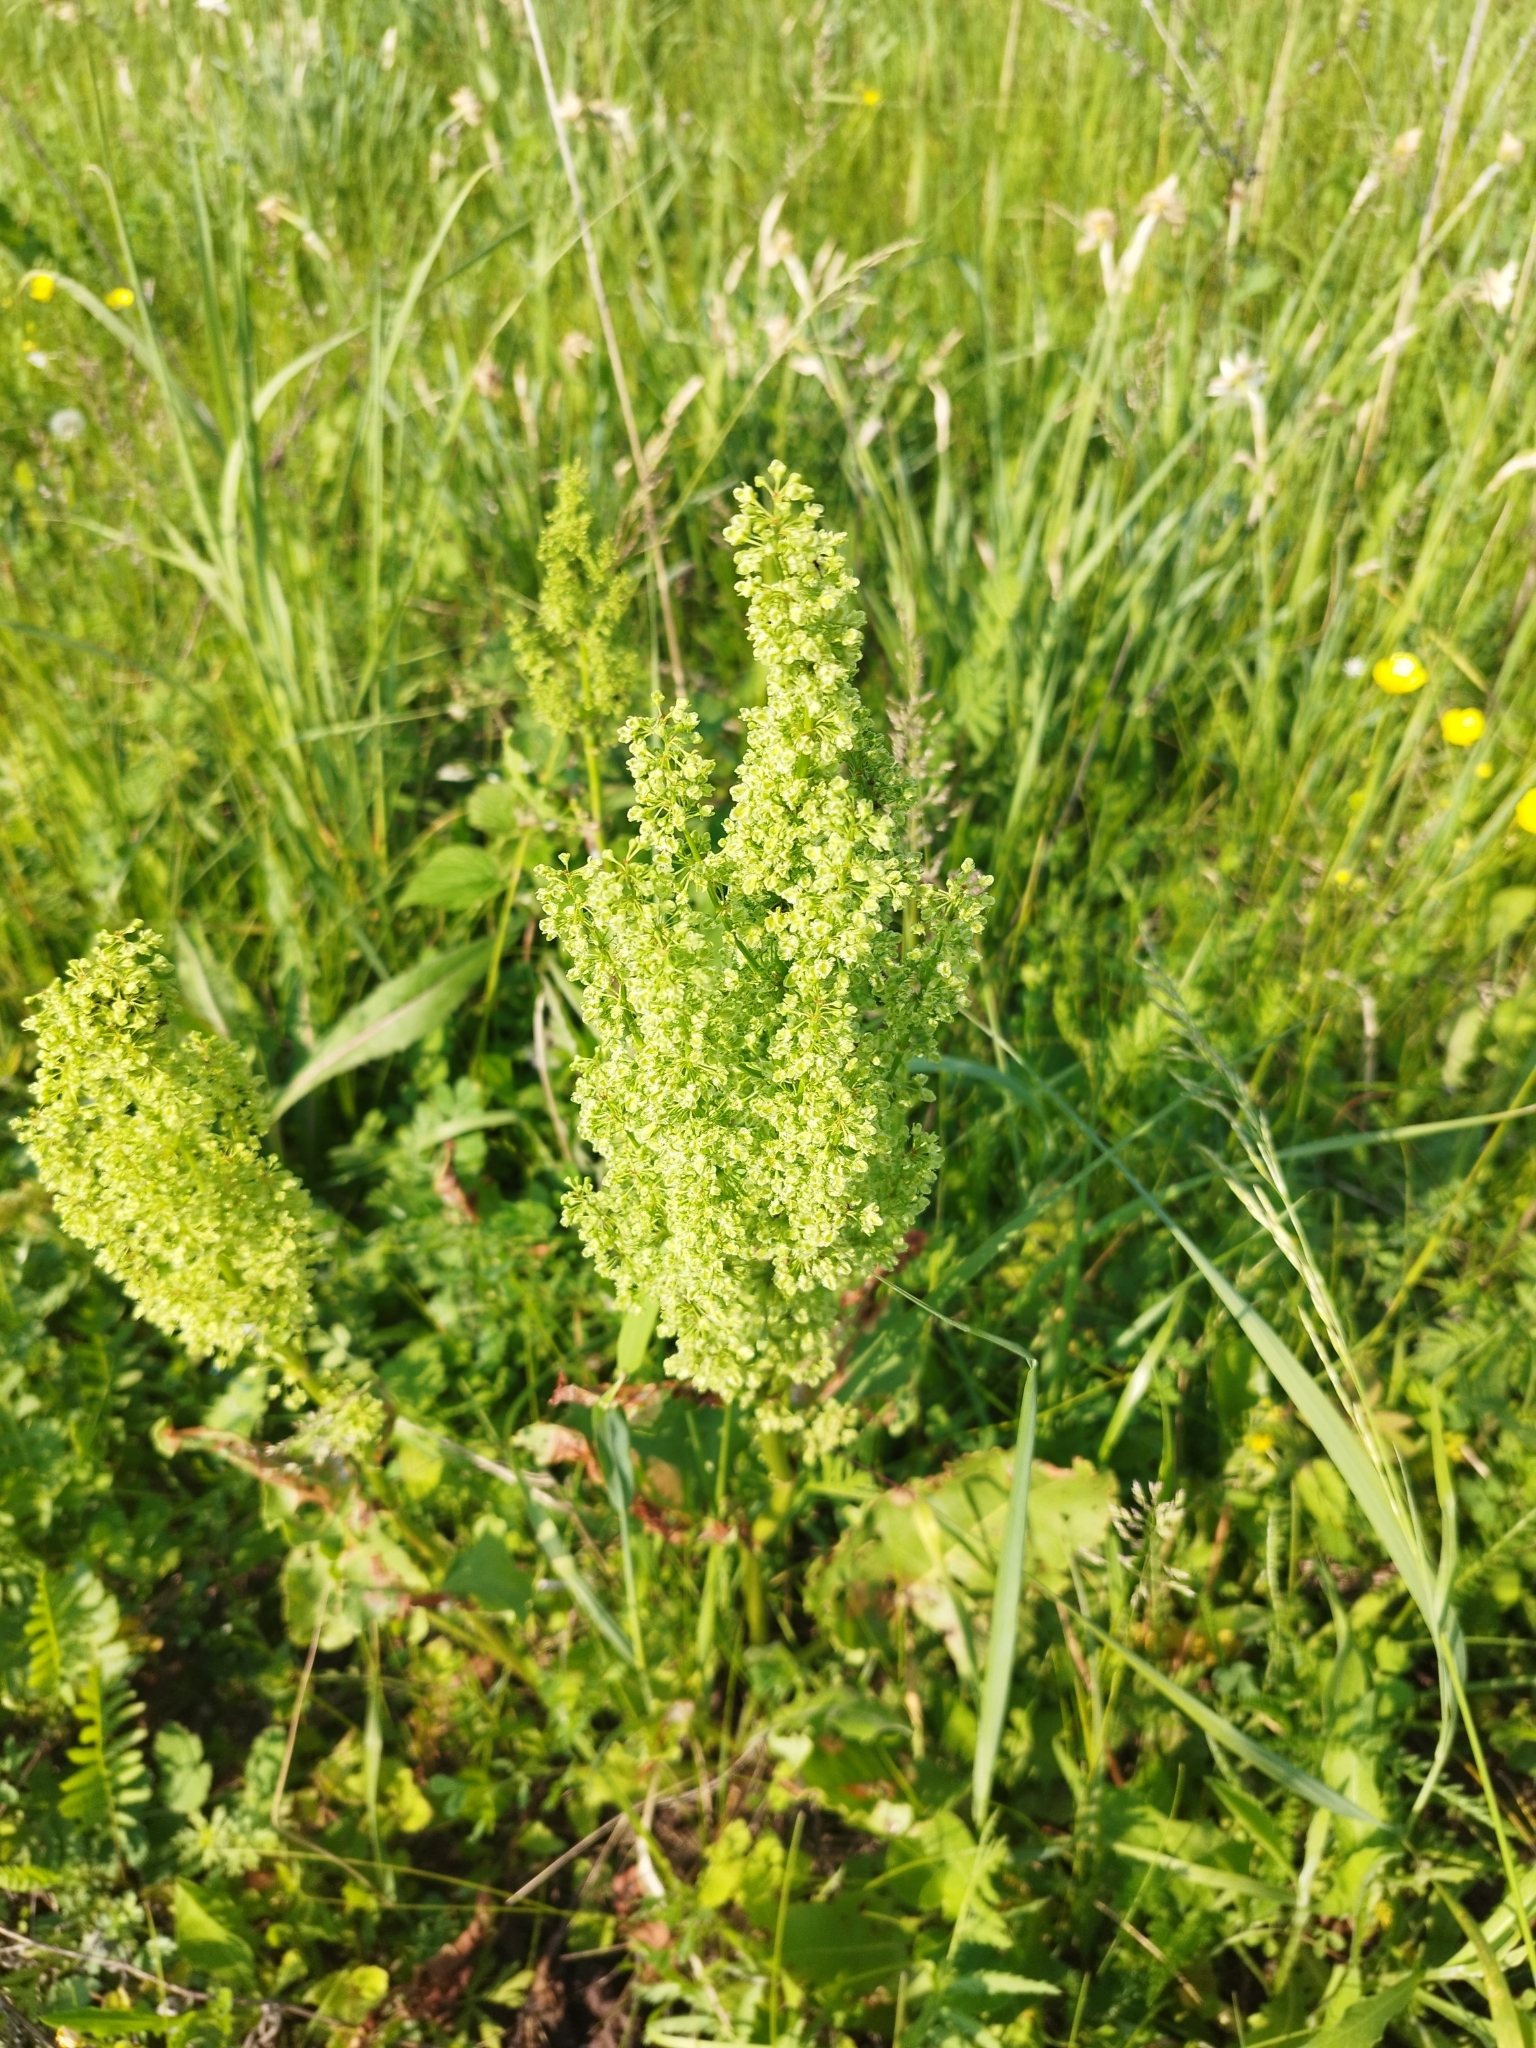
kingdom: Plantae
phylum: Tracheophyta
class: Magnoliopsida
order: Caryophyllales
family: Polygonaceae
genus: Rumex
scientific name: Rumex confertus
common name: Russian dock
